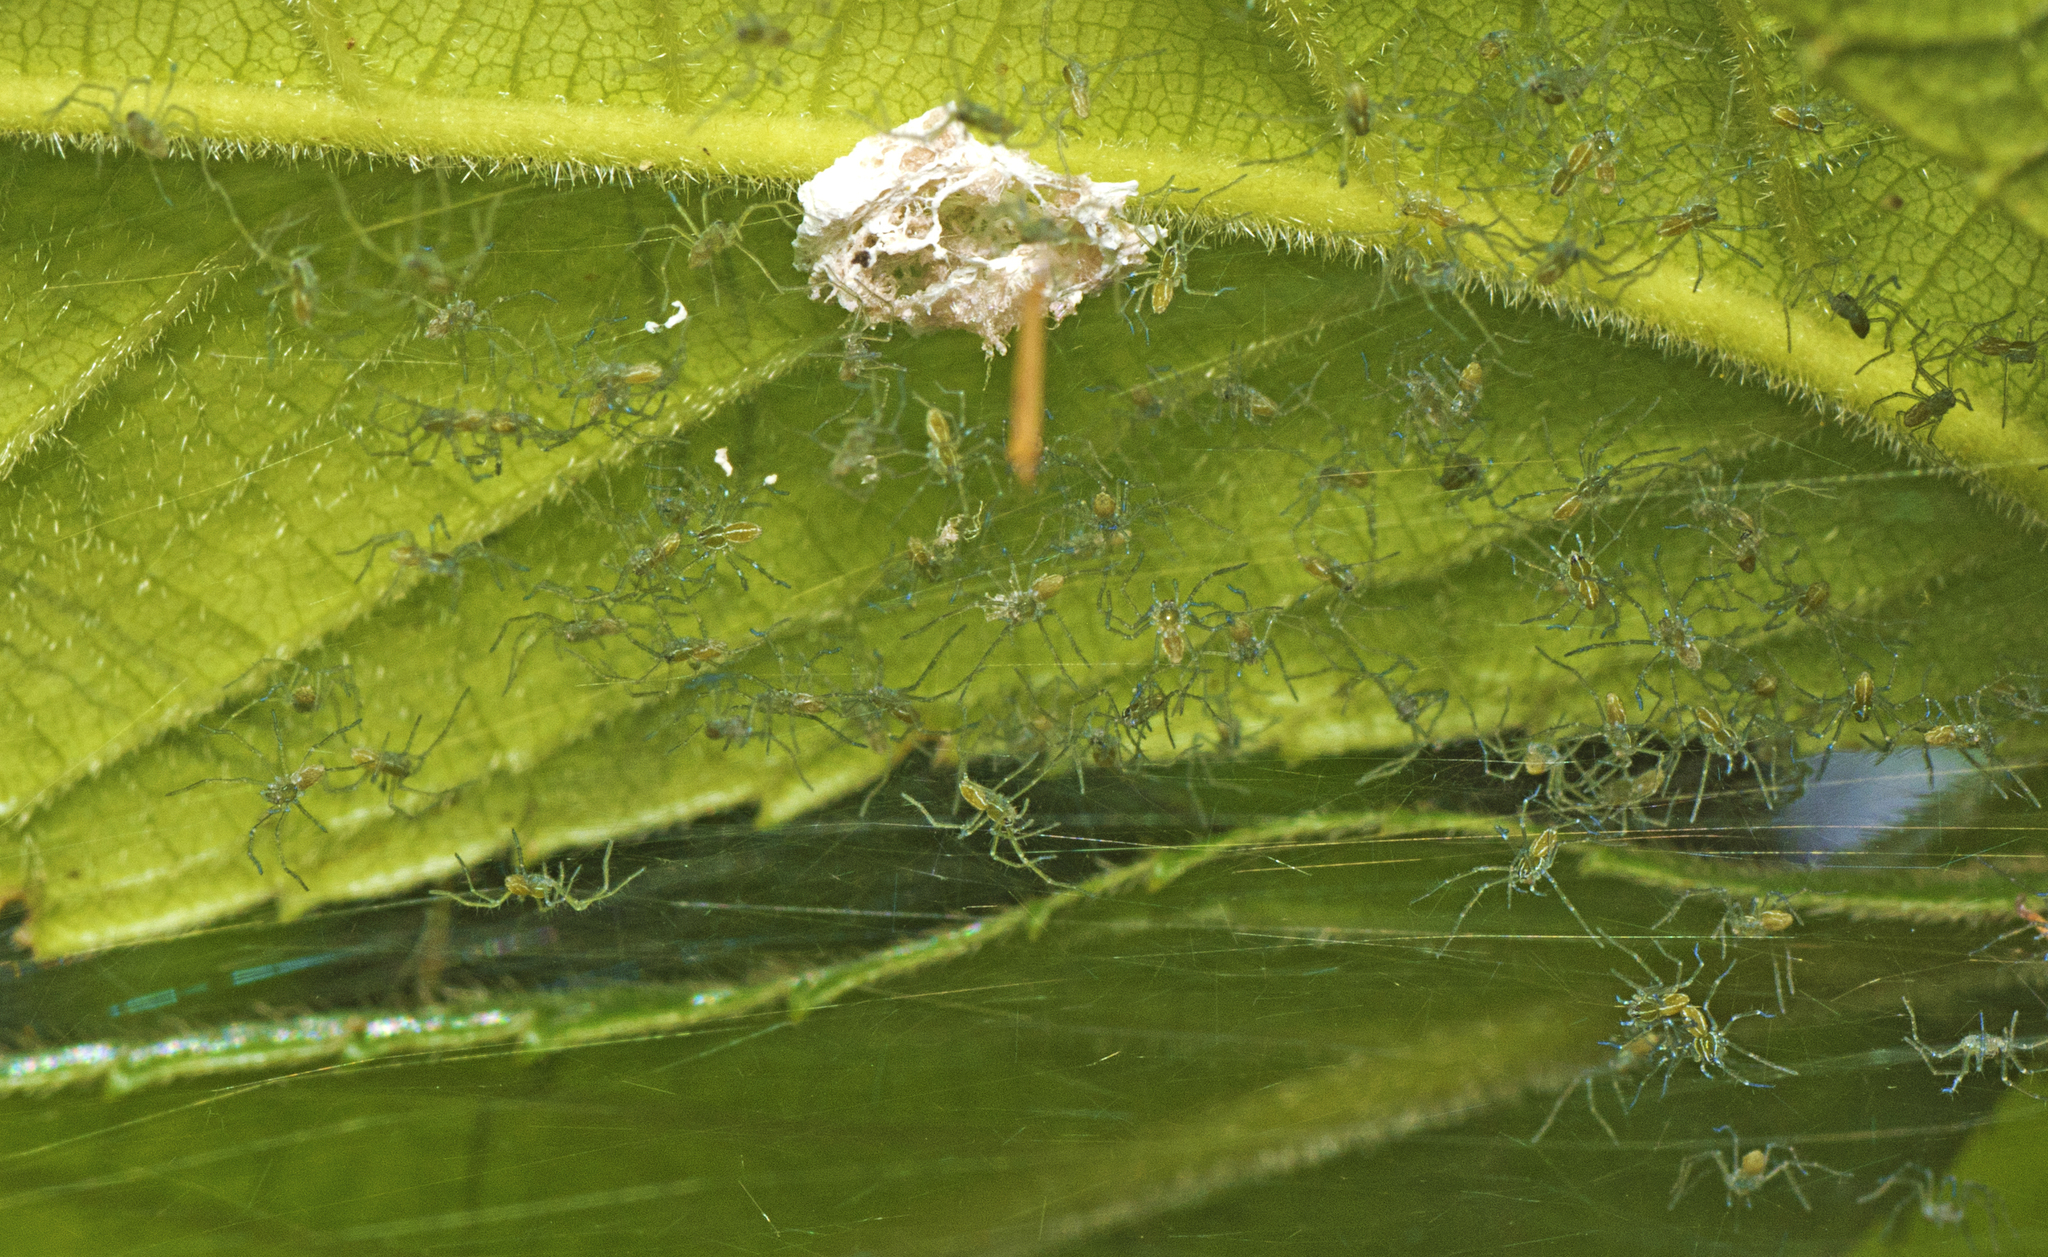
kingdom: Animalia
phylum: Arthropoda
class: Arachnida
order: Araneae
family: Pisauridae
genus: Hygropoda
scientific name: Hygropoda lineata
